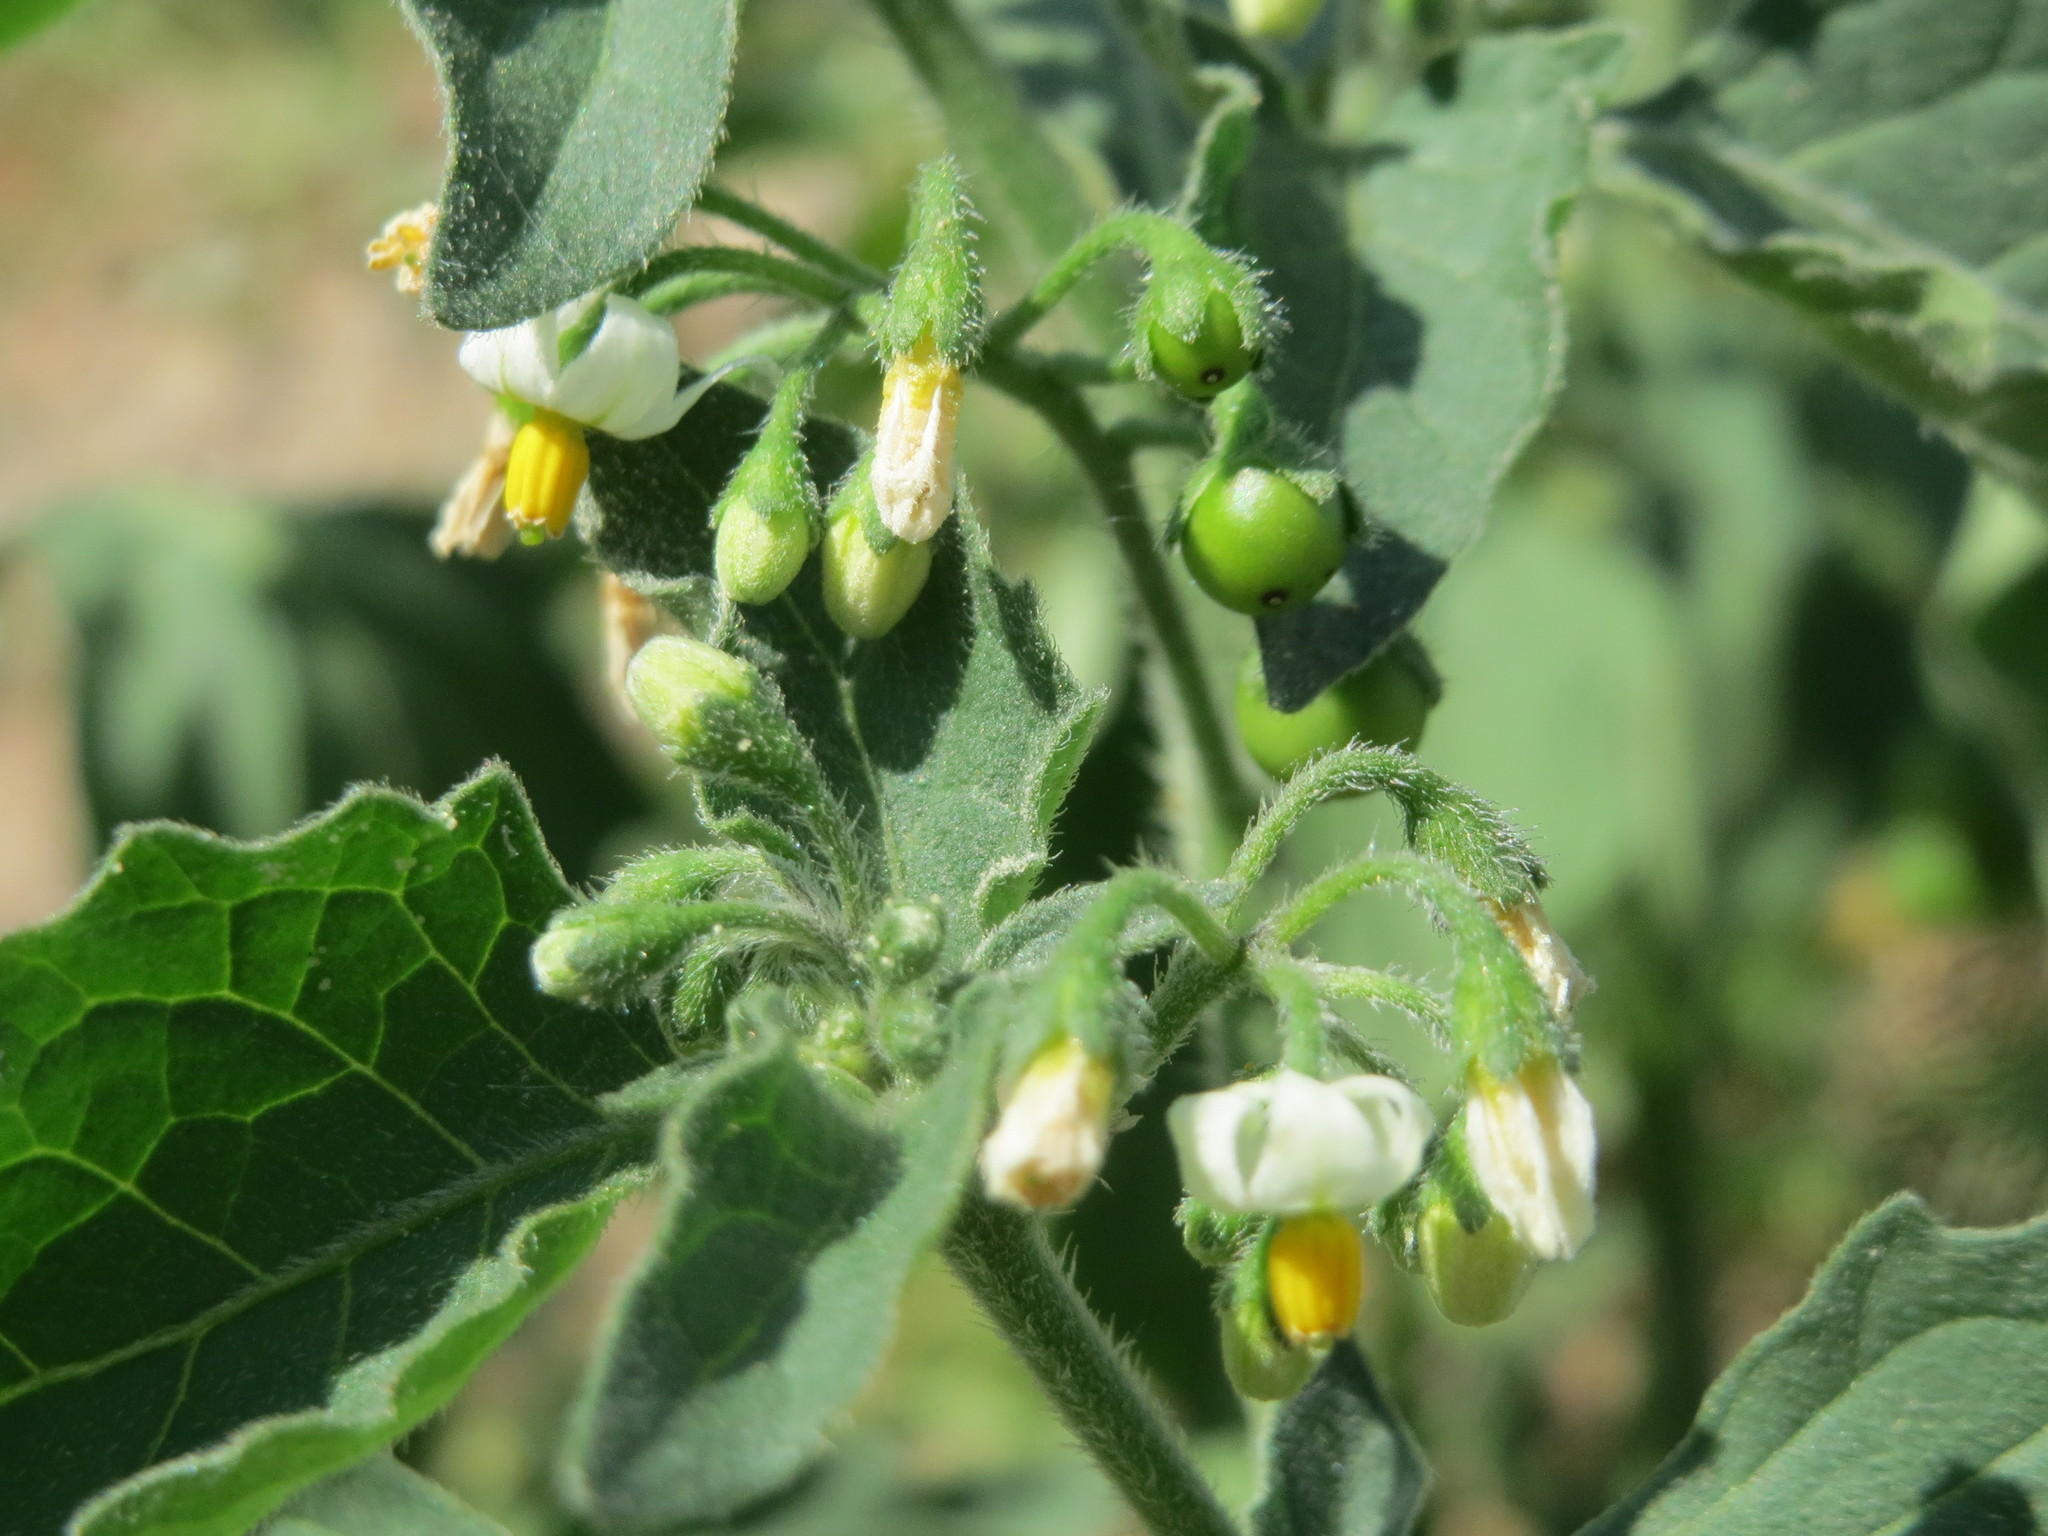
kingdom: Plantae
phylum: Tracheophyta
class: Magnoliopsida
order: Solanales
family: Solanaceae
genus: Solanum
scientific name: Solanum nigrum
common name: Black nightshade
